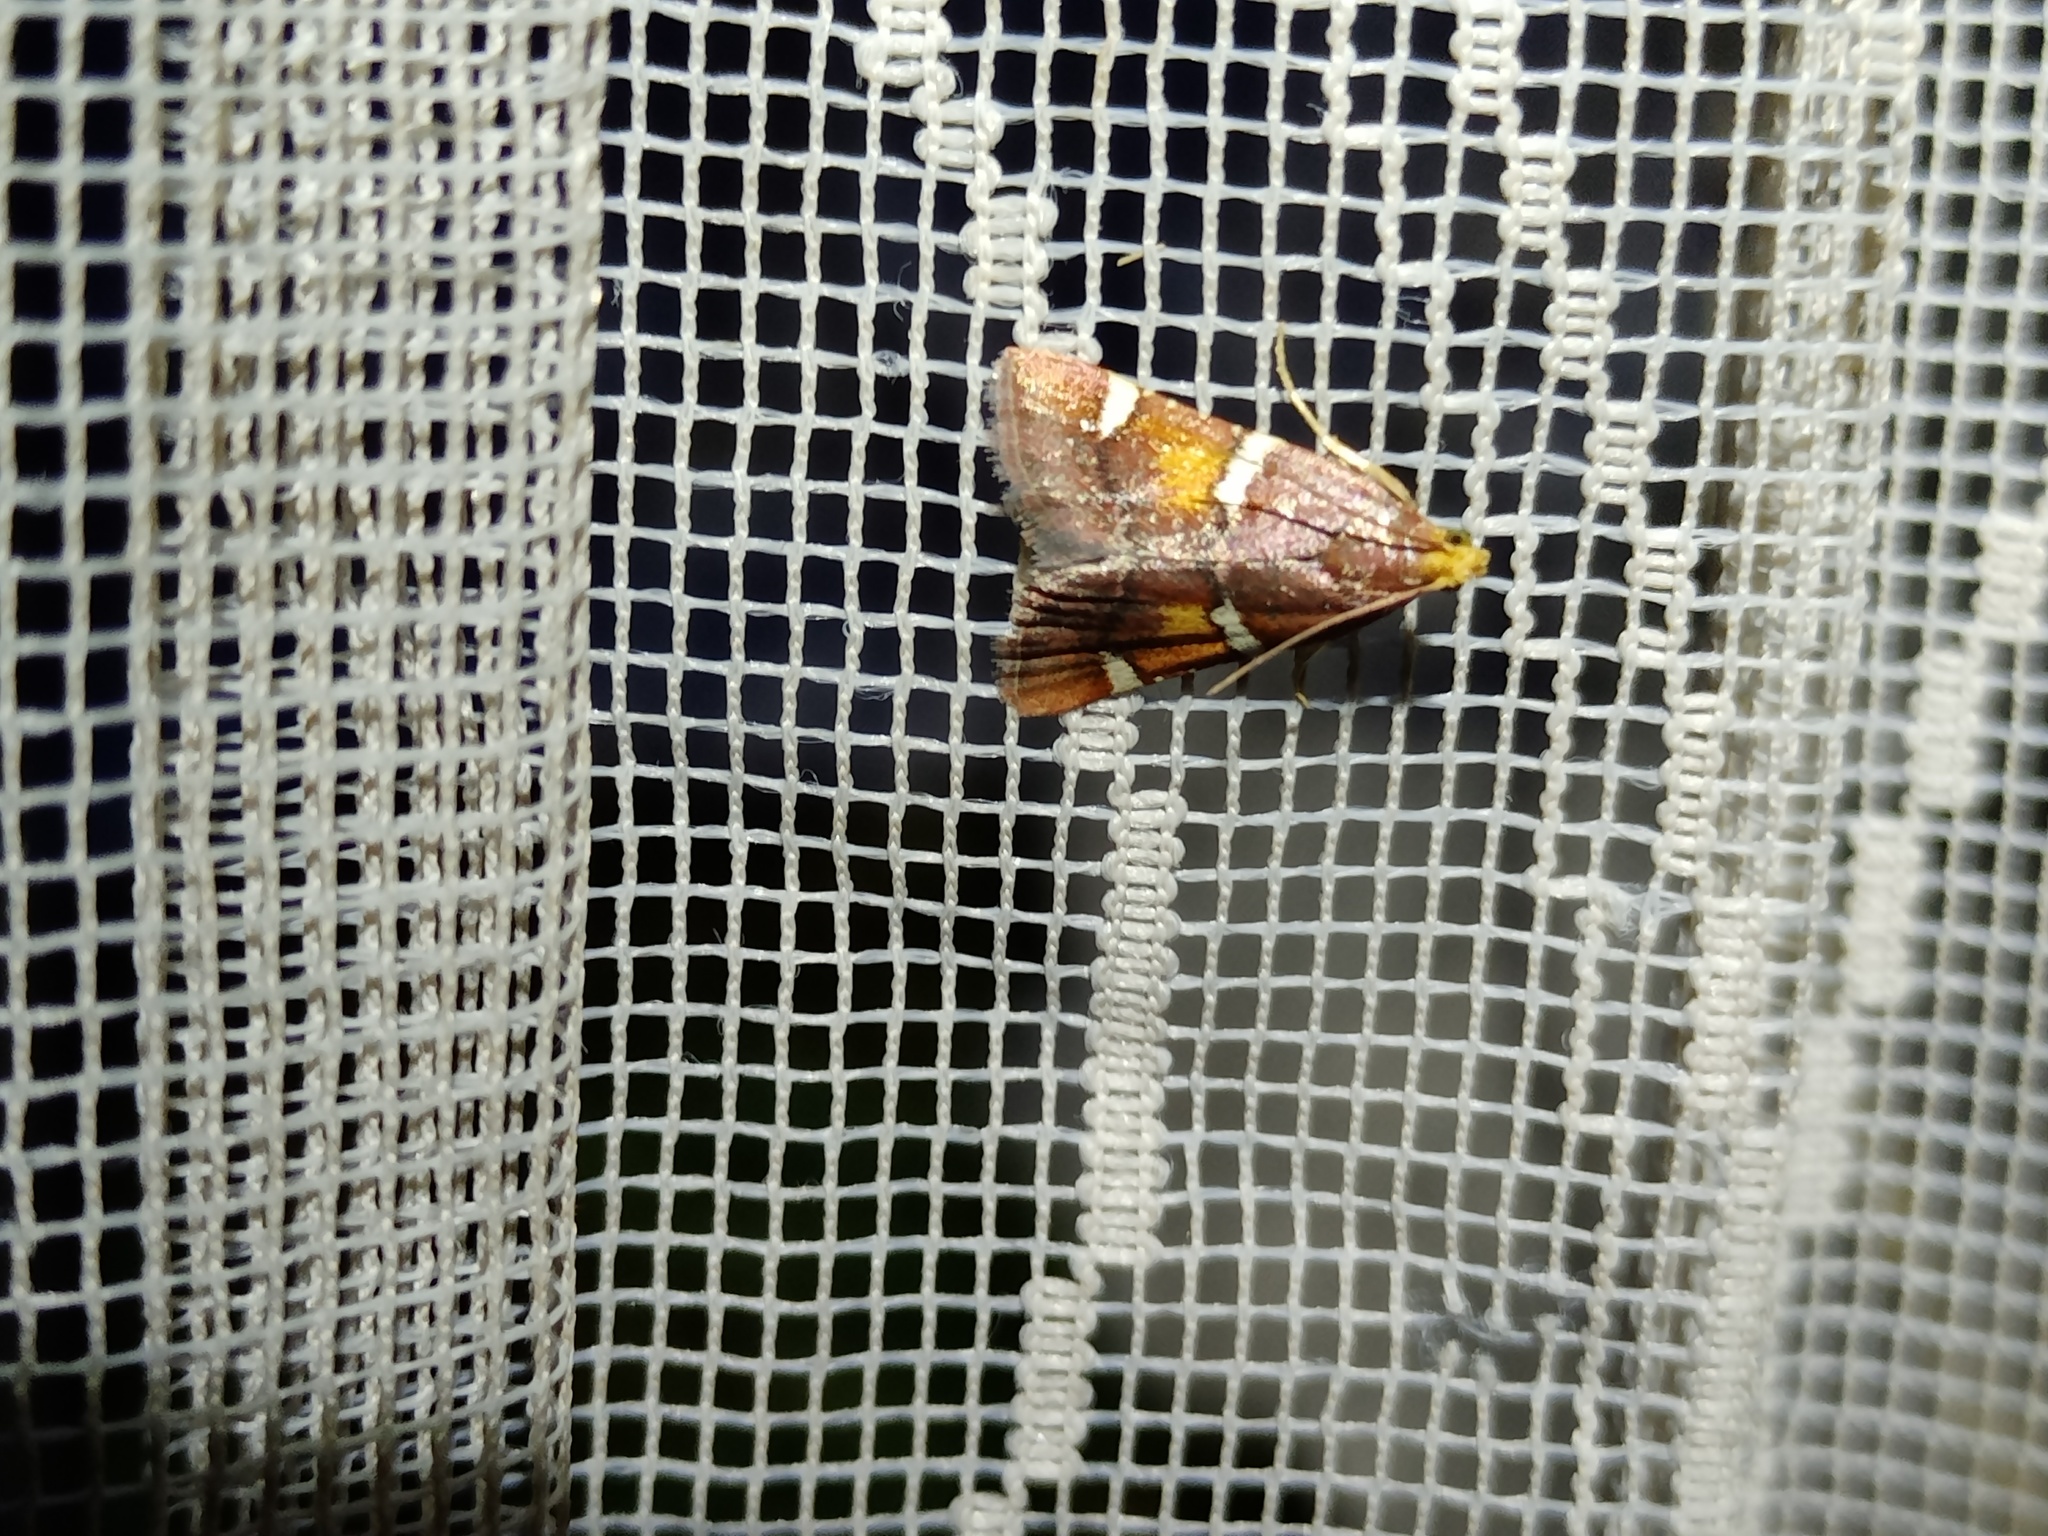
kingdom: Animalia
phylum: Arthropoda
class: Insecta
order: Lepidoptera
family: Pyralidae
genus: Pyralis
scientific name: Pyralis regalis
